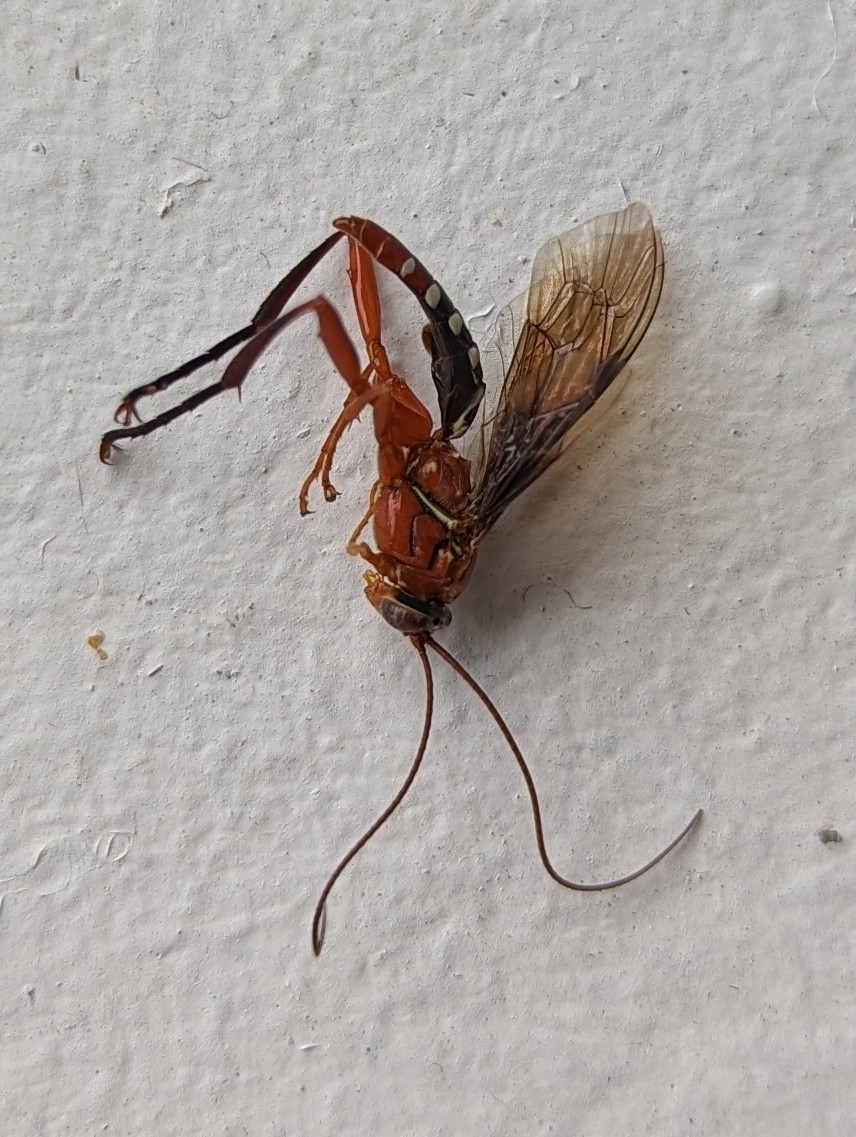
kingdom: Animalia
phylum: Arthropoda
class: Insecta
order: Hymenoptera
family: Ichneumonidae
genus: Lissopimpla
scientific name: Lissopimpla excelsa
